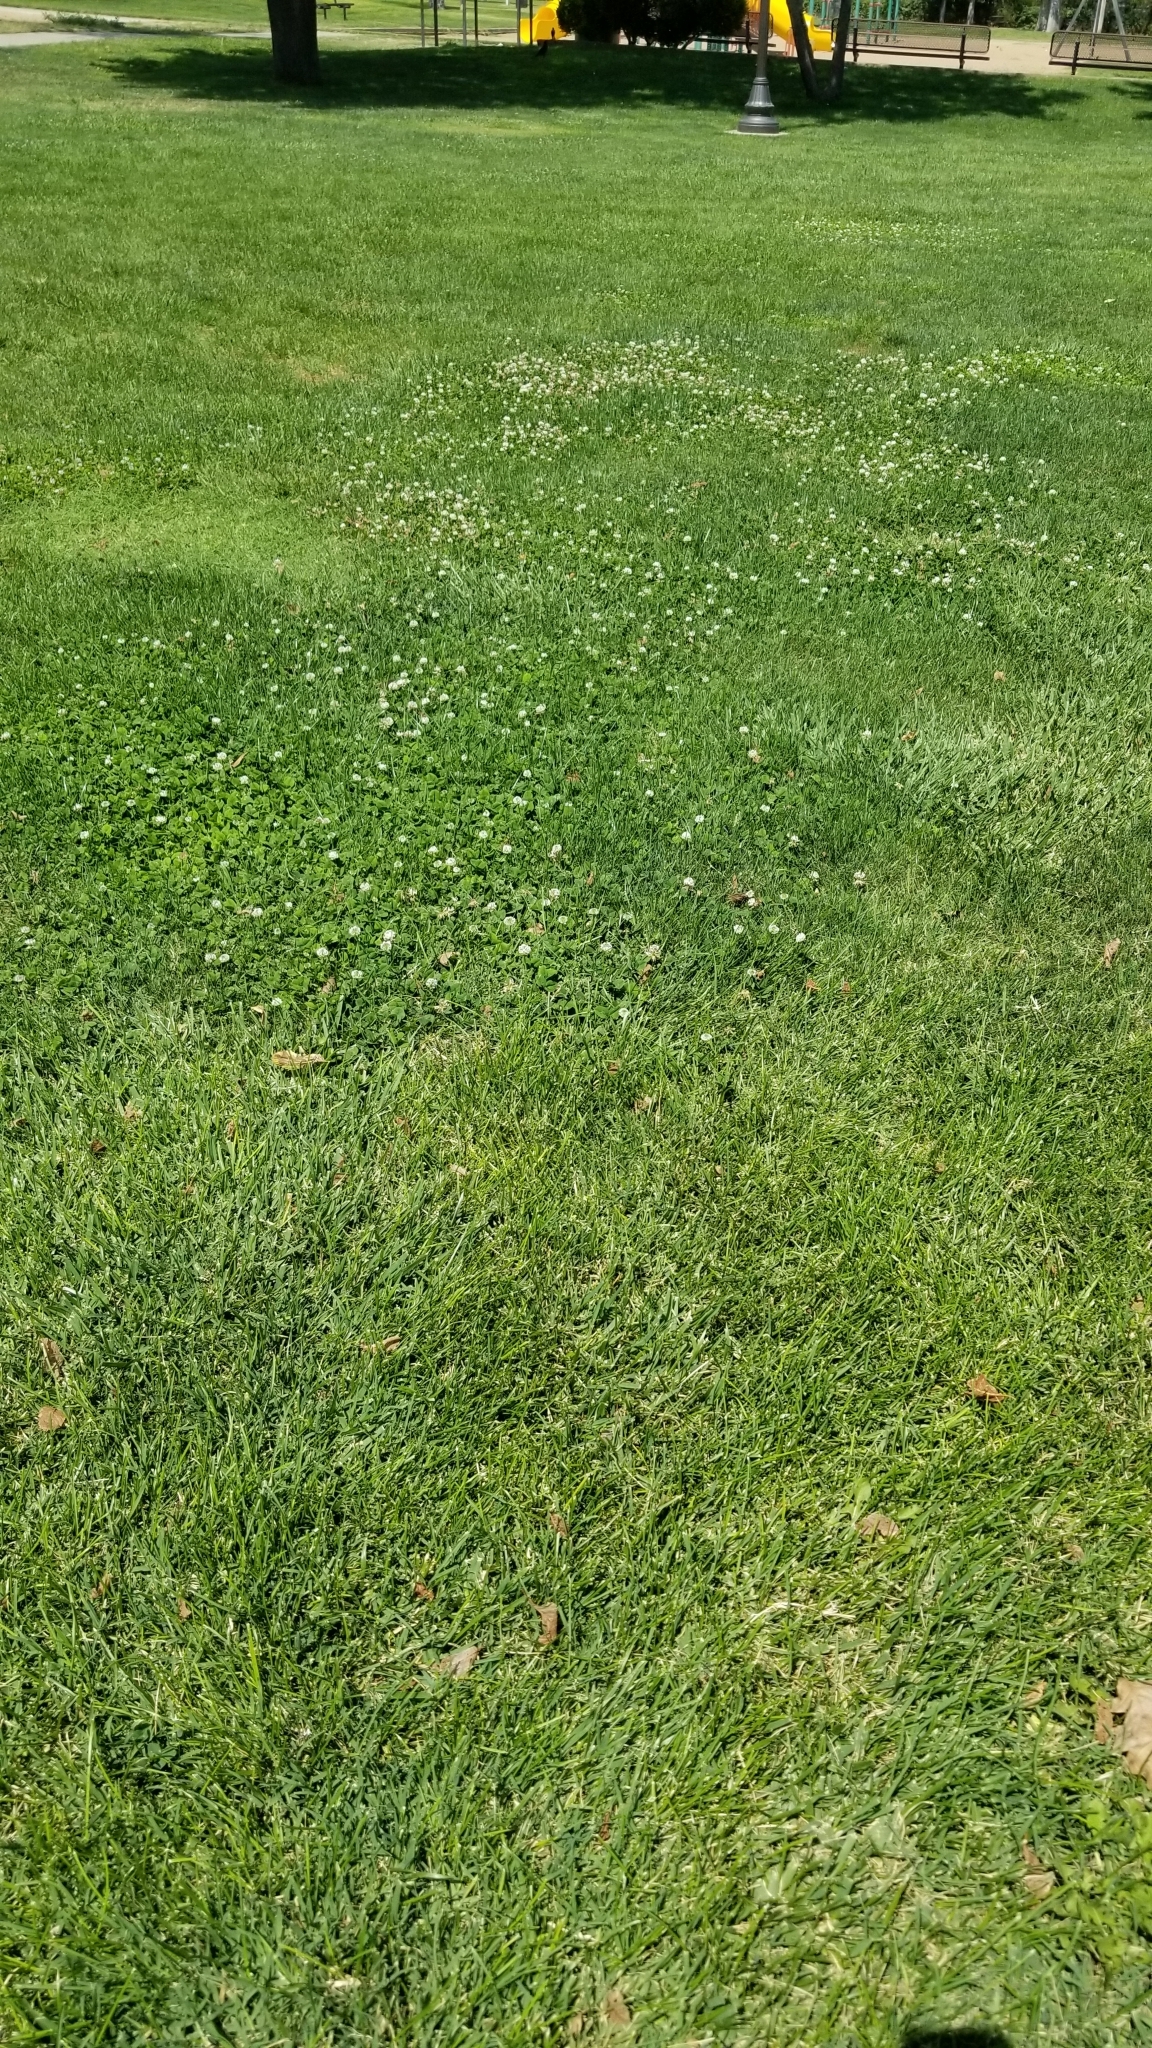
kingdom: Plantae
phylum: Tracheophyta
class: Magnoliopsida
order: Fabales
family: Fabaceae
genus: Trifolium
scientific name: Trifolium repens
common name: White clover
